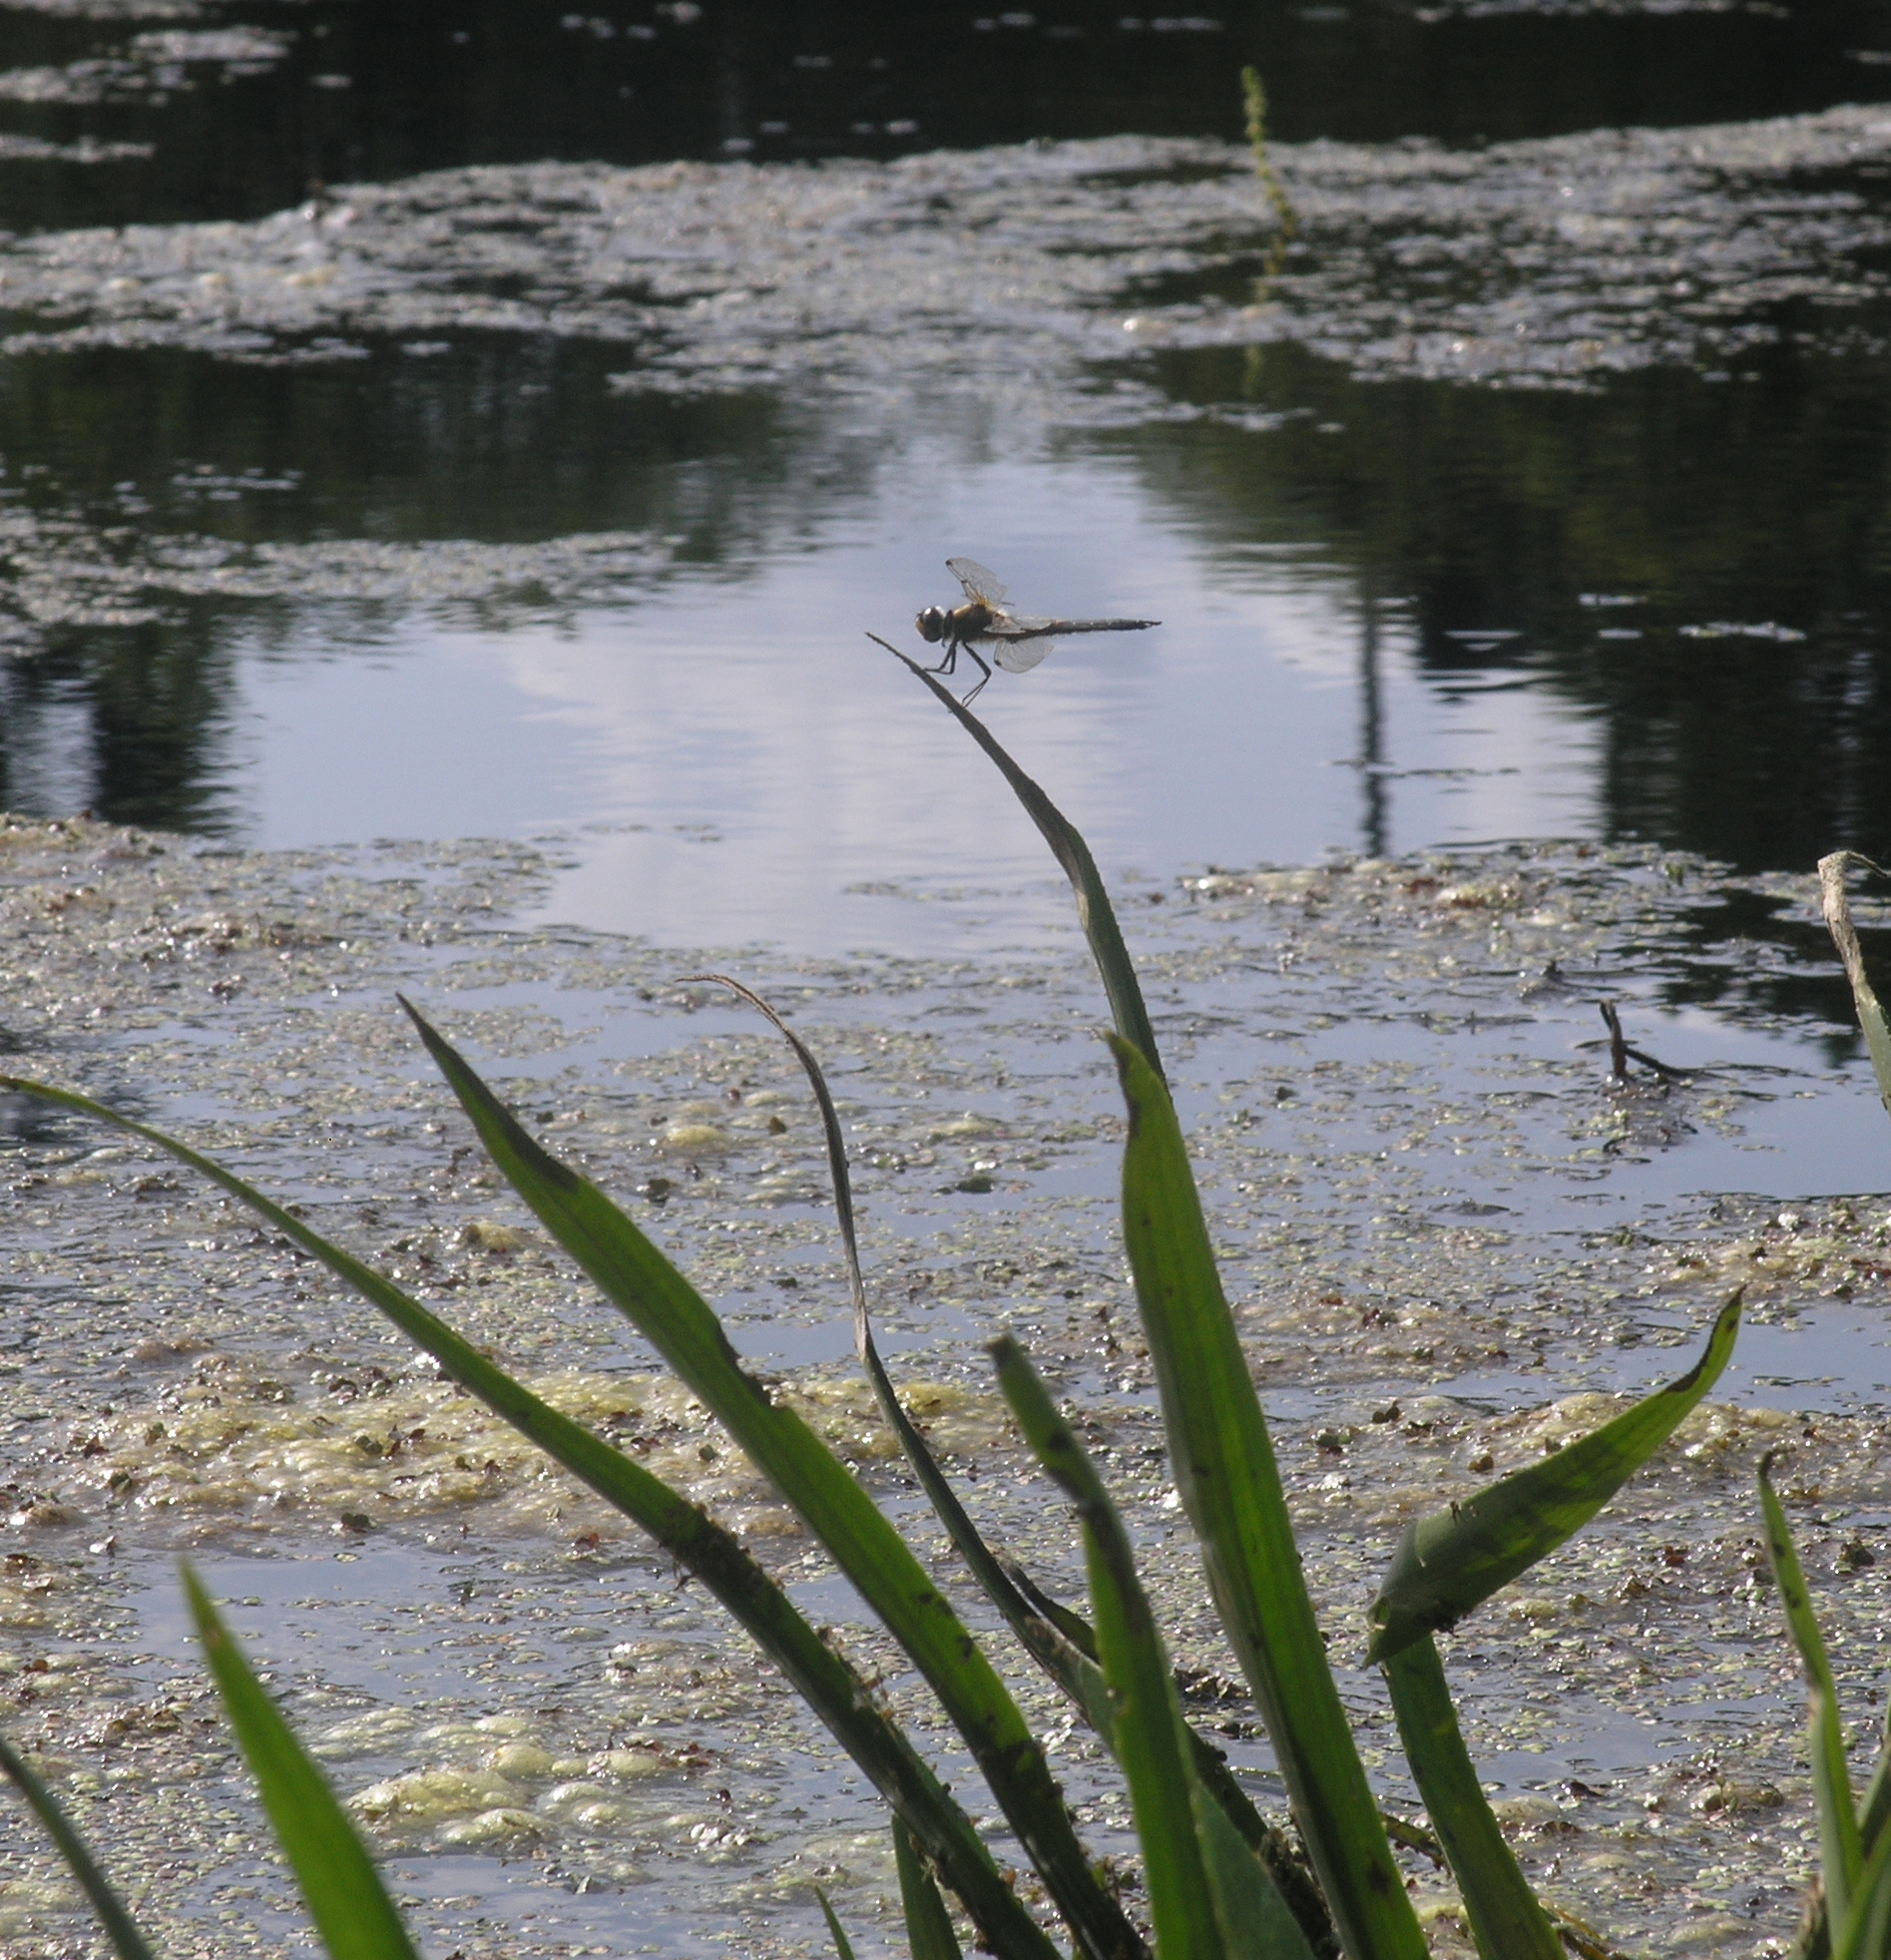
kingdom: Animalia
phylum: Arthropoda
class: Insecta
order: Odonata
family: Libellulidae
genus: Libellula
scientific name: Libellula quadrimaculata
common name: Four-spotted chaser
